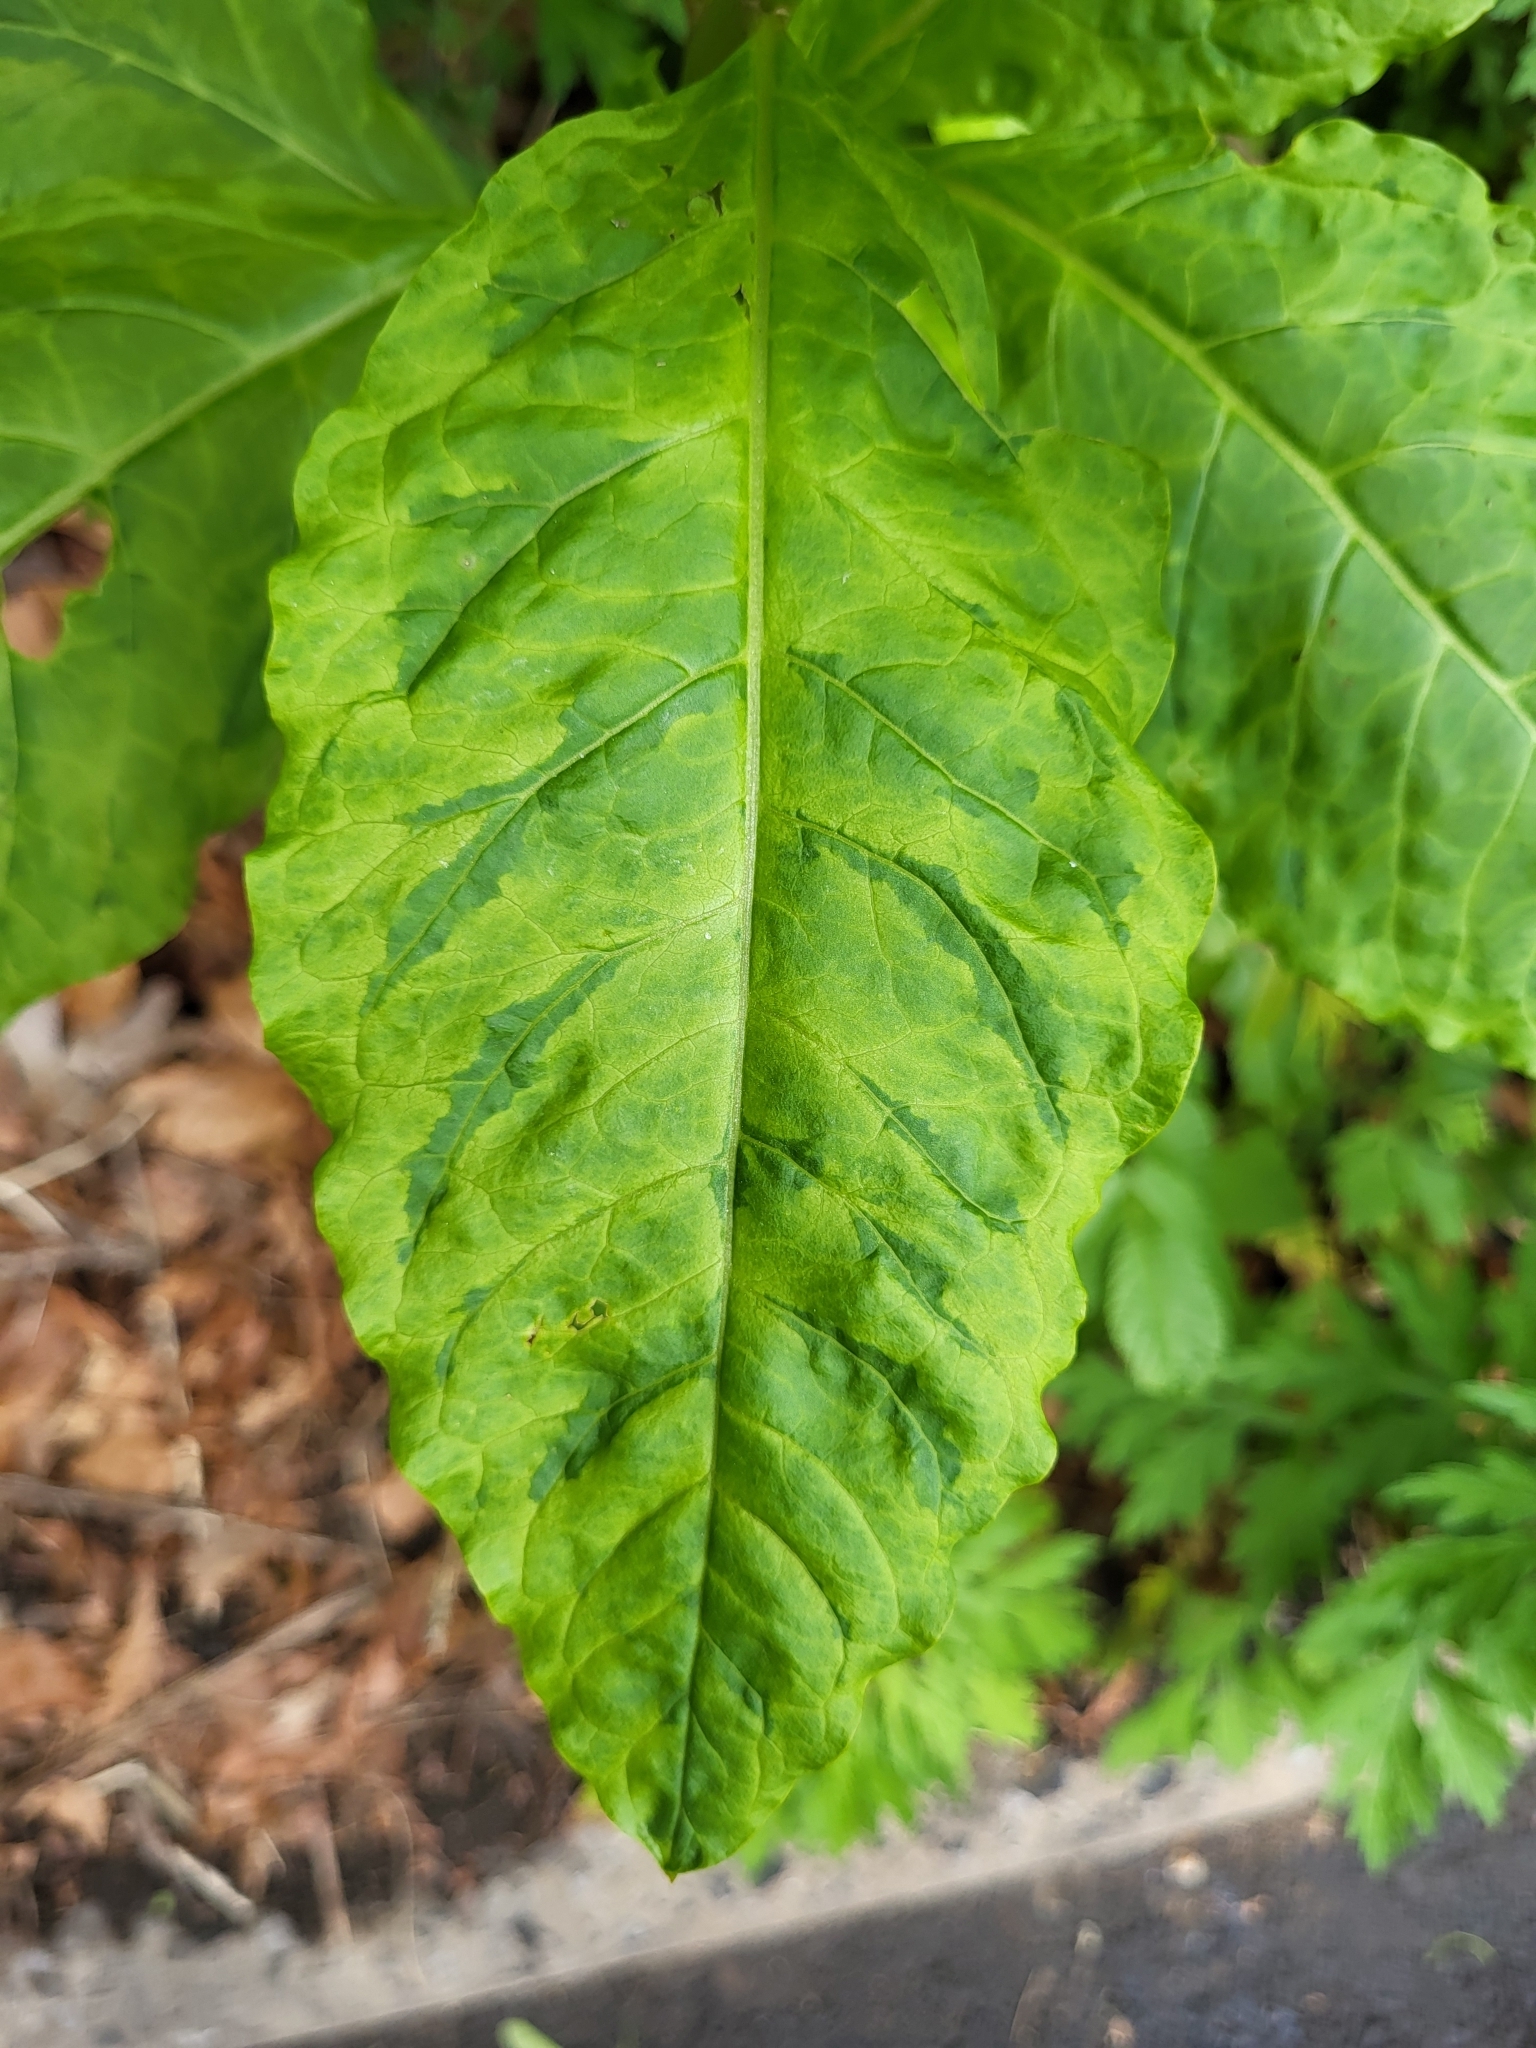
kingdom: Viruses
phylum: Pisuviricota
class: Stelpaviricetes
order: Patatavirales
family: Potyviridae
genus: Potyvirus
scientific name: Potyvirus Pokeweed mosaic virus
